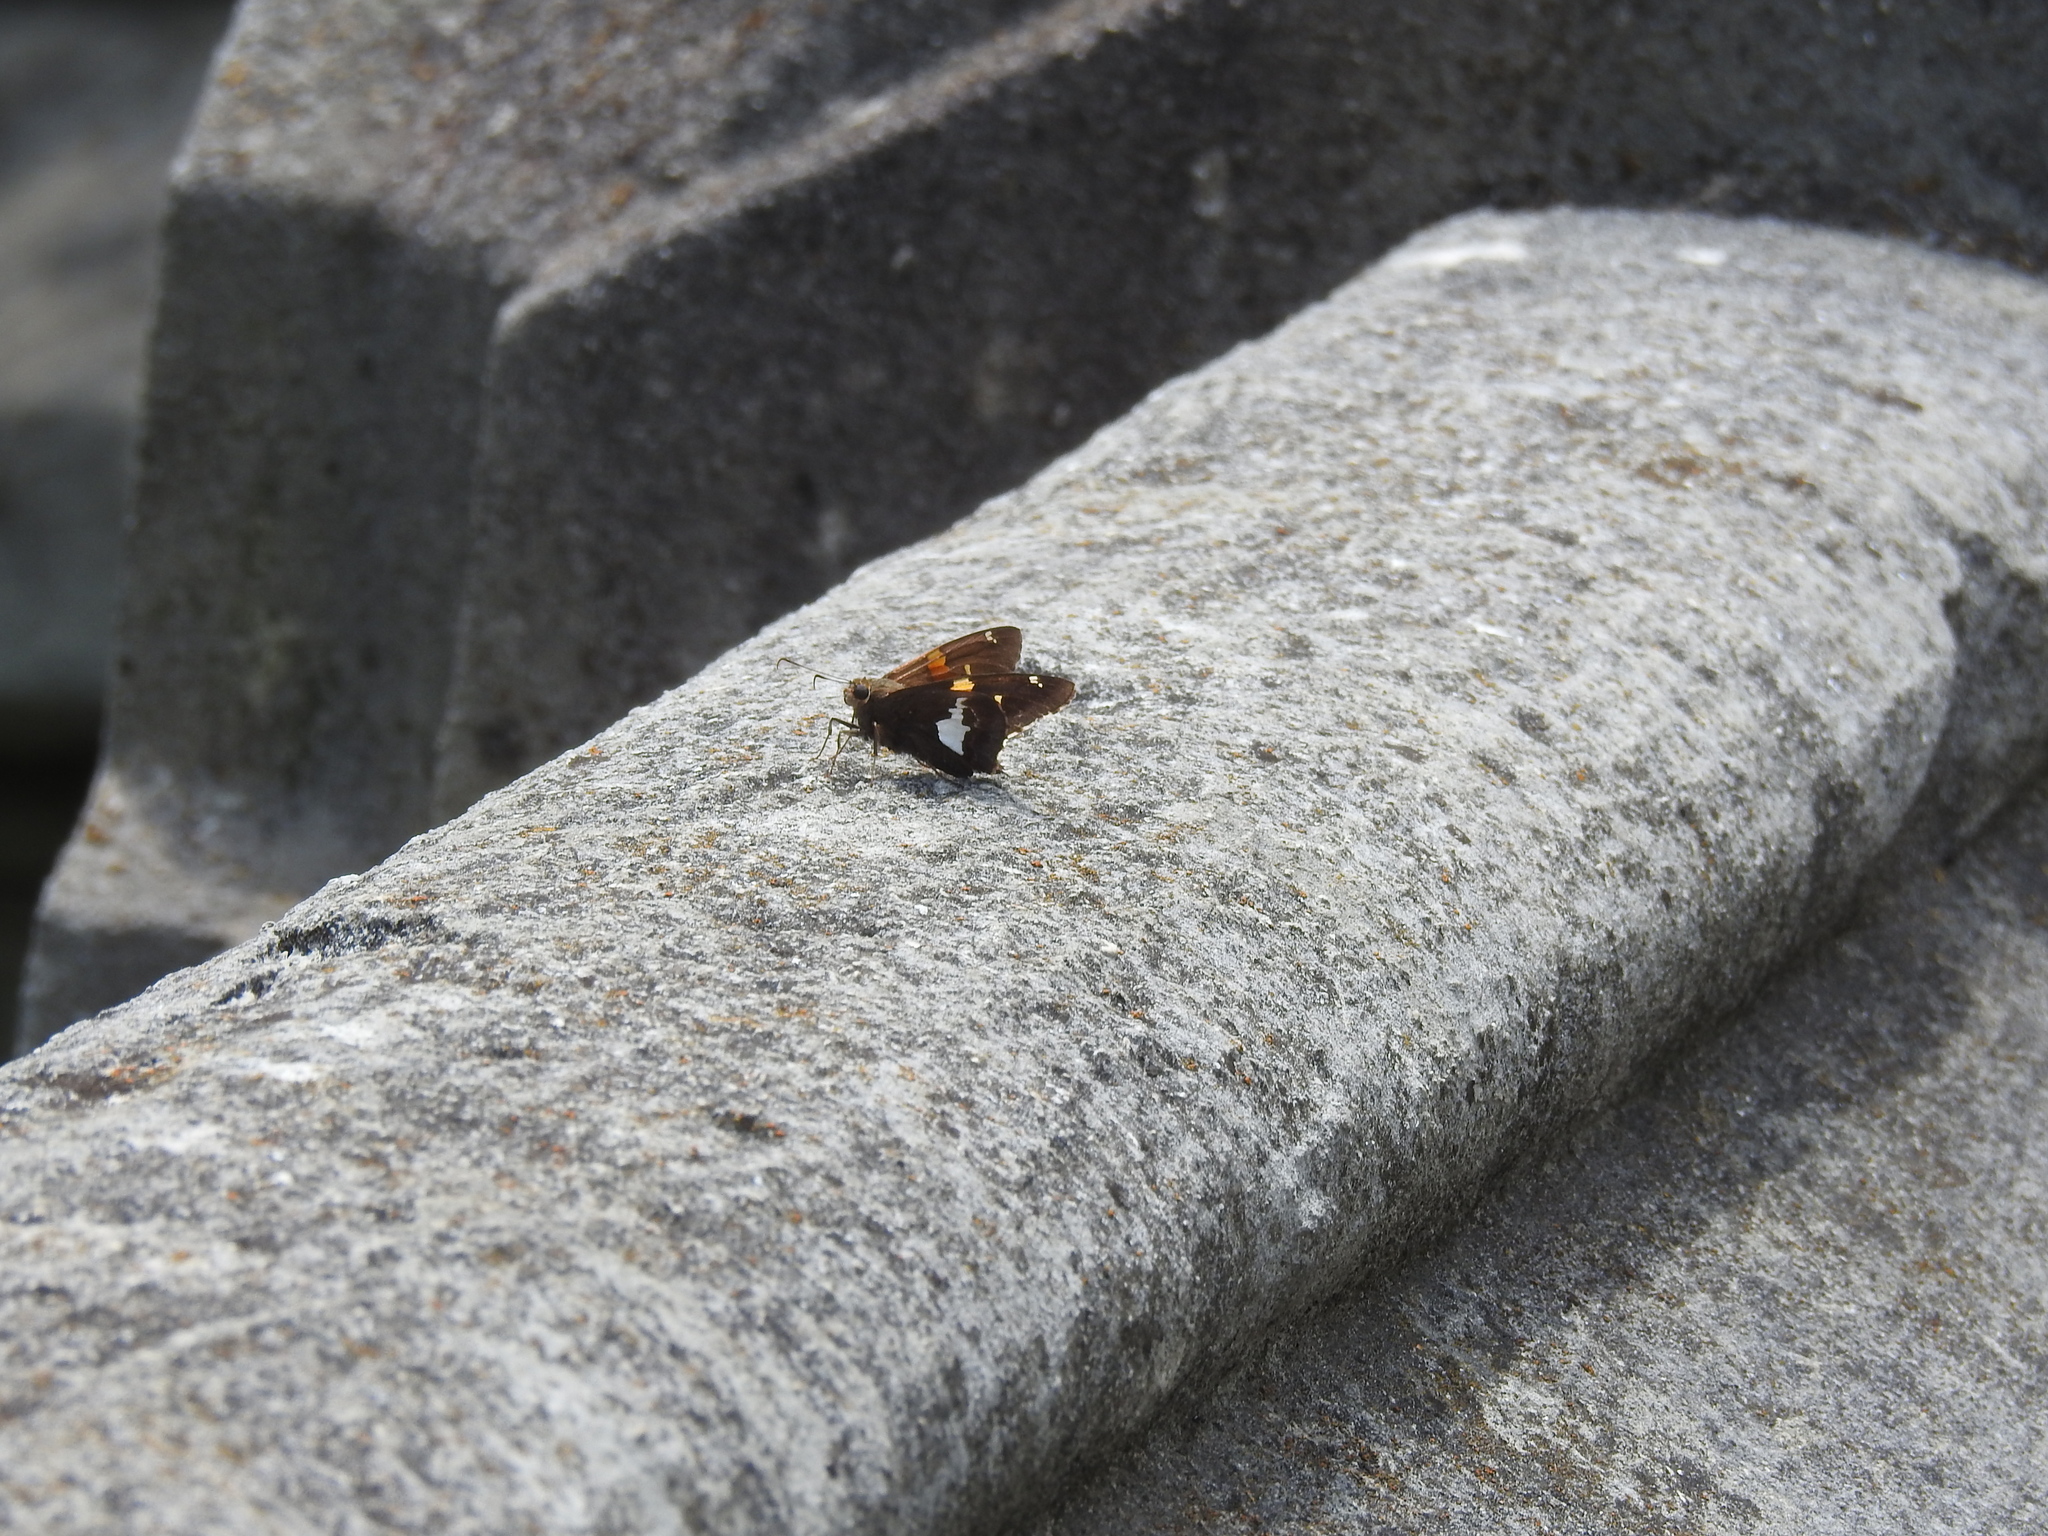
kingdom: Animalia
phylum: Arthropoda
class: Insecta
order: Lepidoptera
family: Hesperiidae
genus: Epargyreus
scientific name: Epargyreus clarus
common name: Silver-spotted skipper
